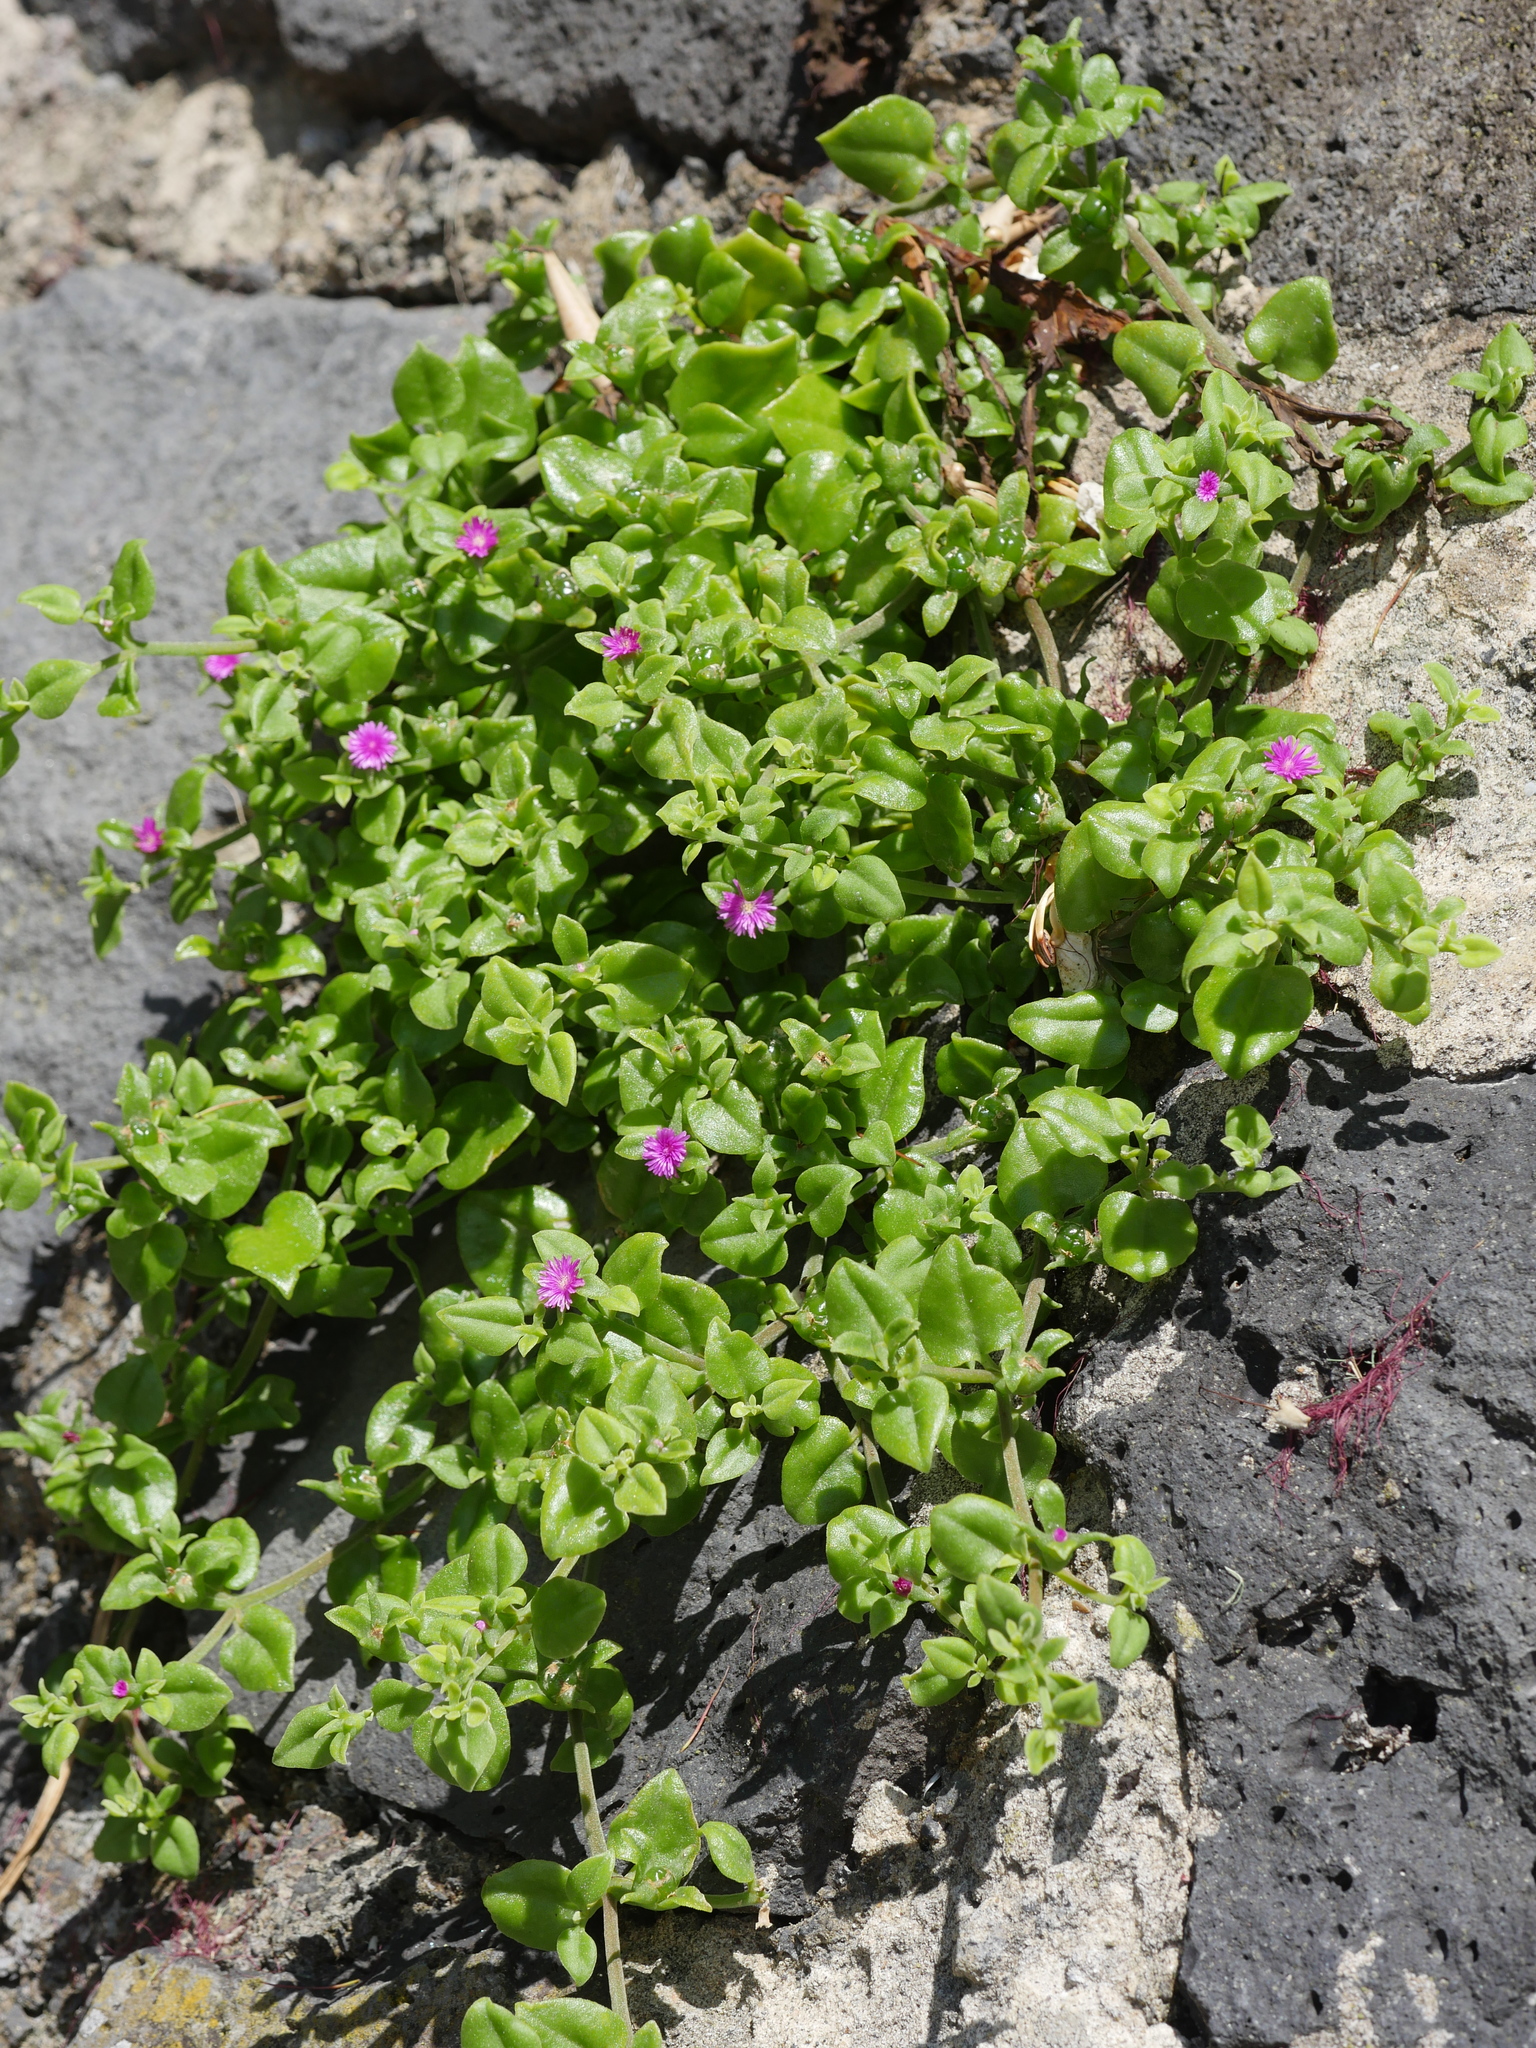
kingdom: Plantae
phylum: Tracheophyta
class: Magnoliopsida
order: Caryophyllales
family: Aizoaceae
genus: Mesembryanthemum
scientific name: Mesembryanthemum cordifolium
